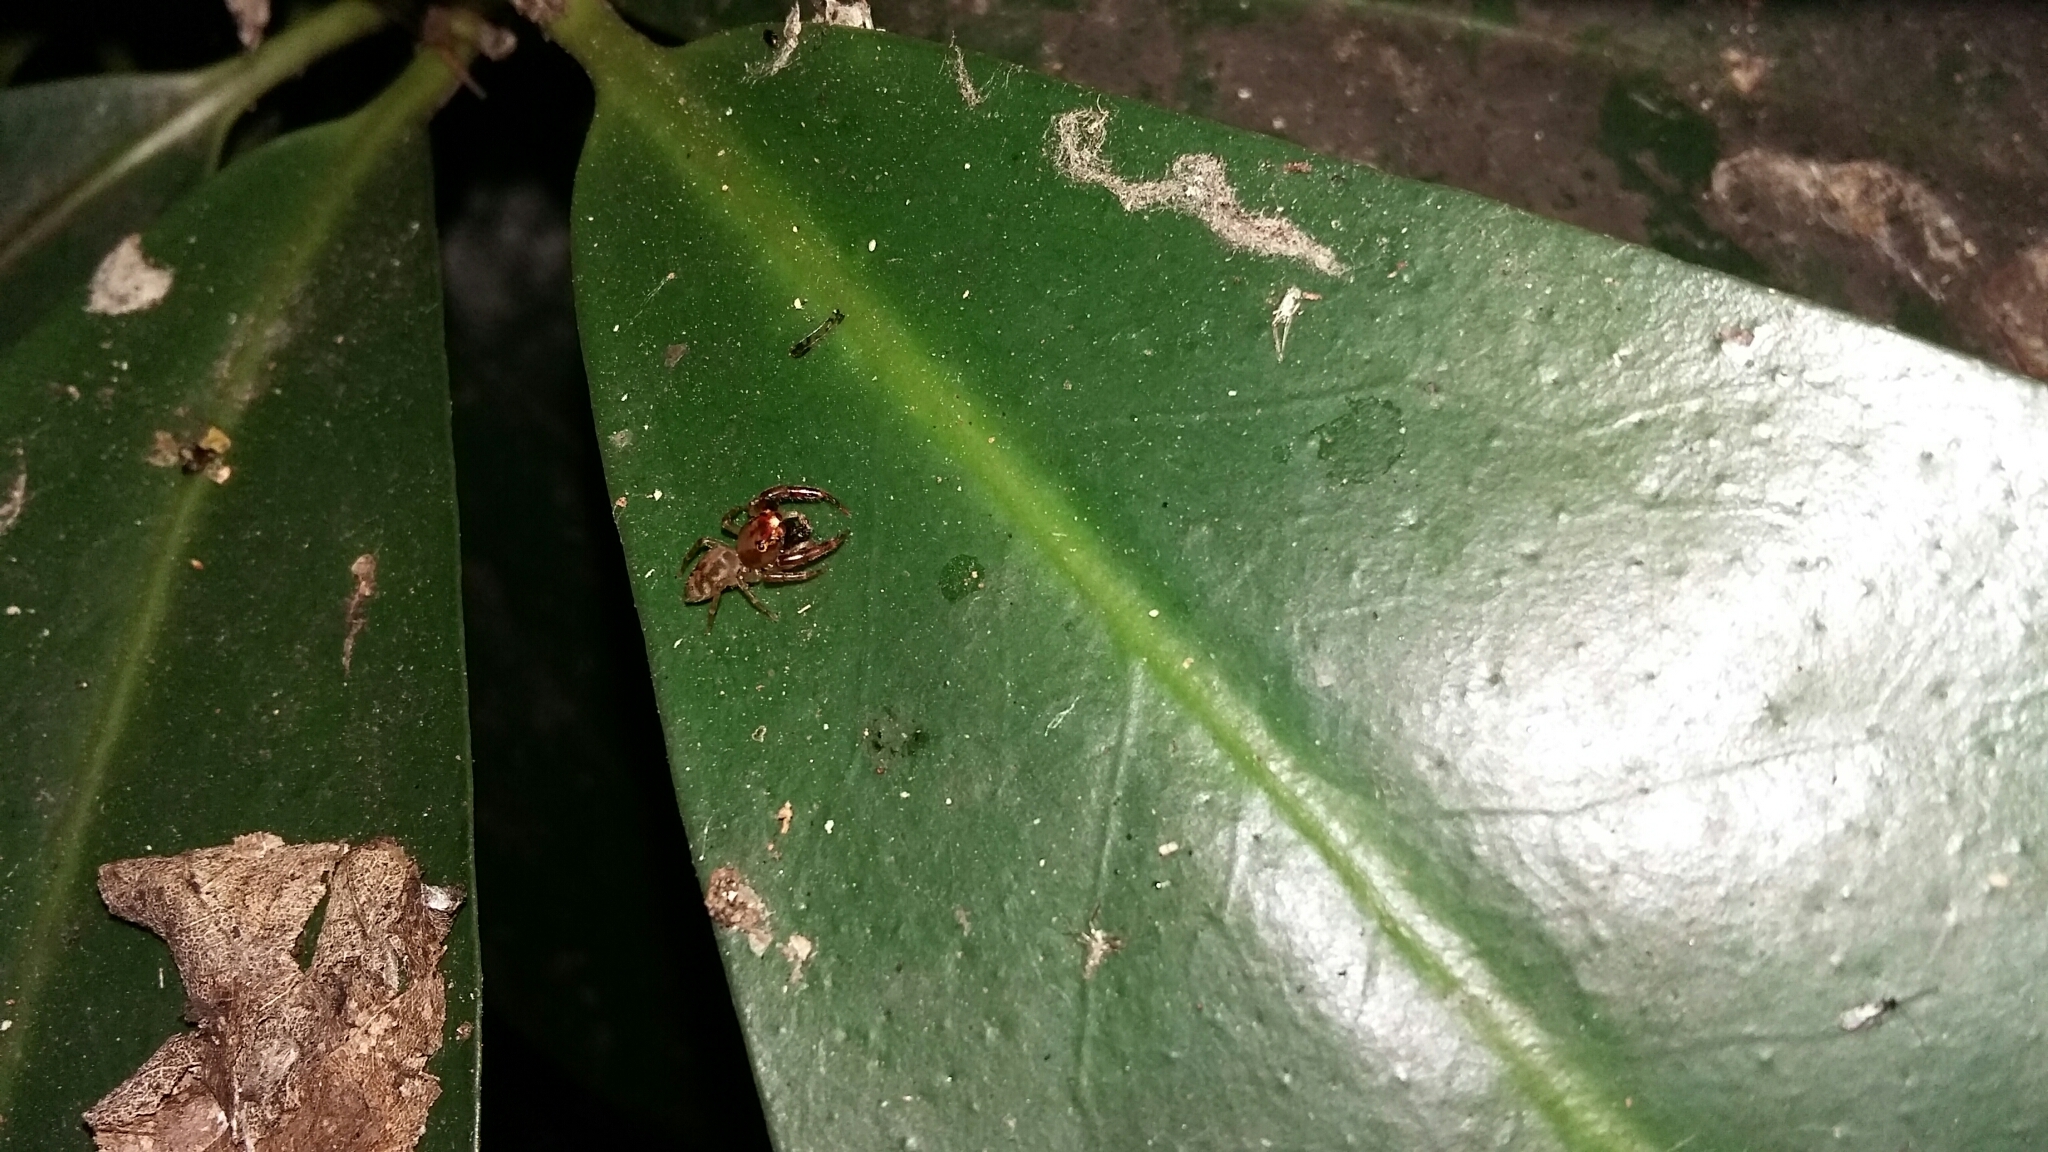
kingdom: Animalia
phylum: Arthropoda
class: Arachnida
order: Araneae
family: Salticidae
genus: Trite
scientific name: Trite mustilina
